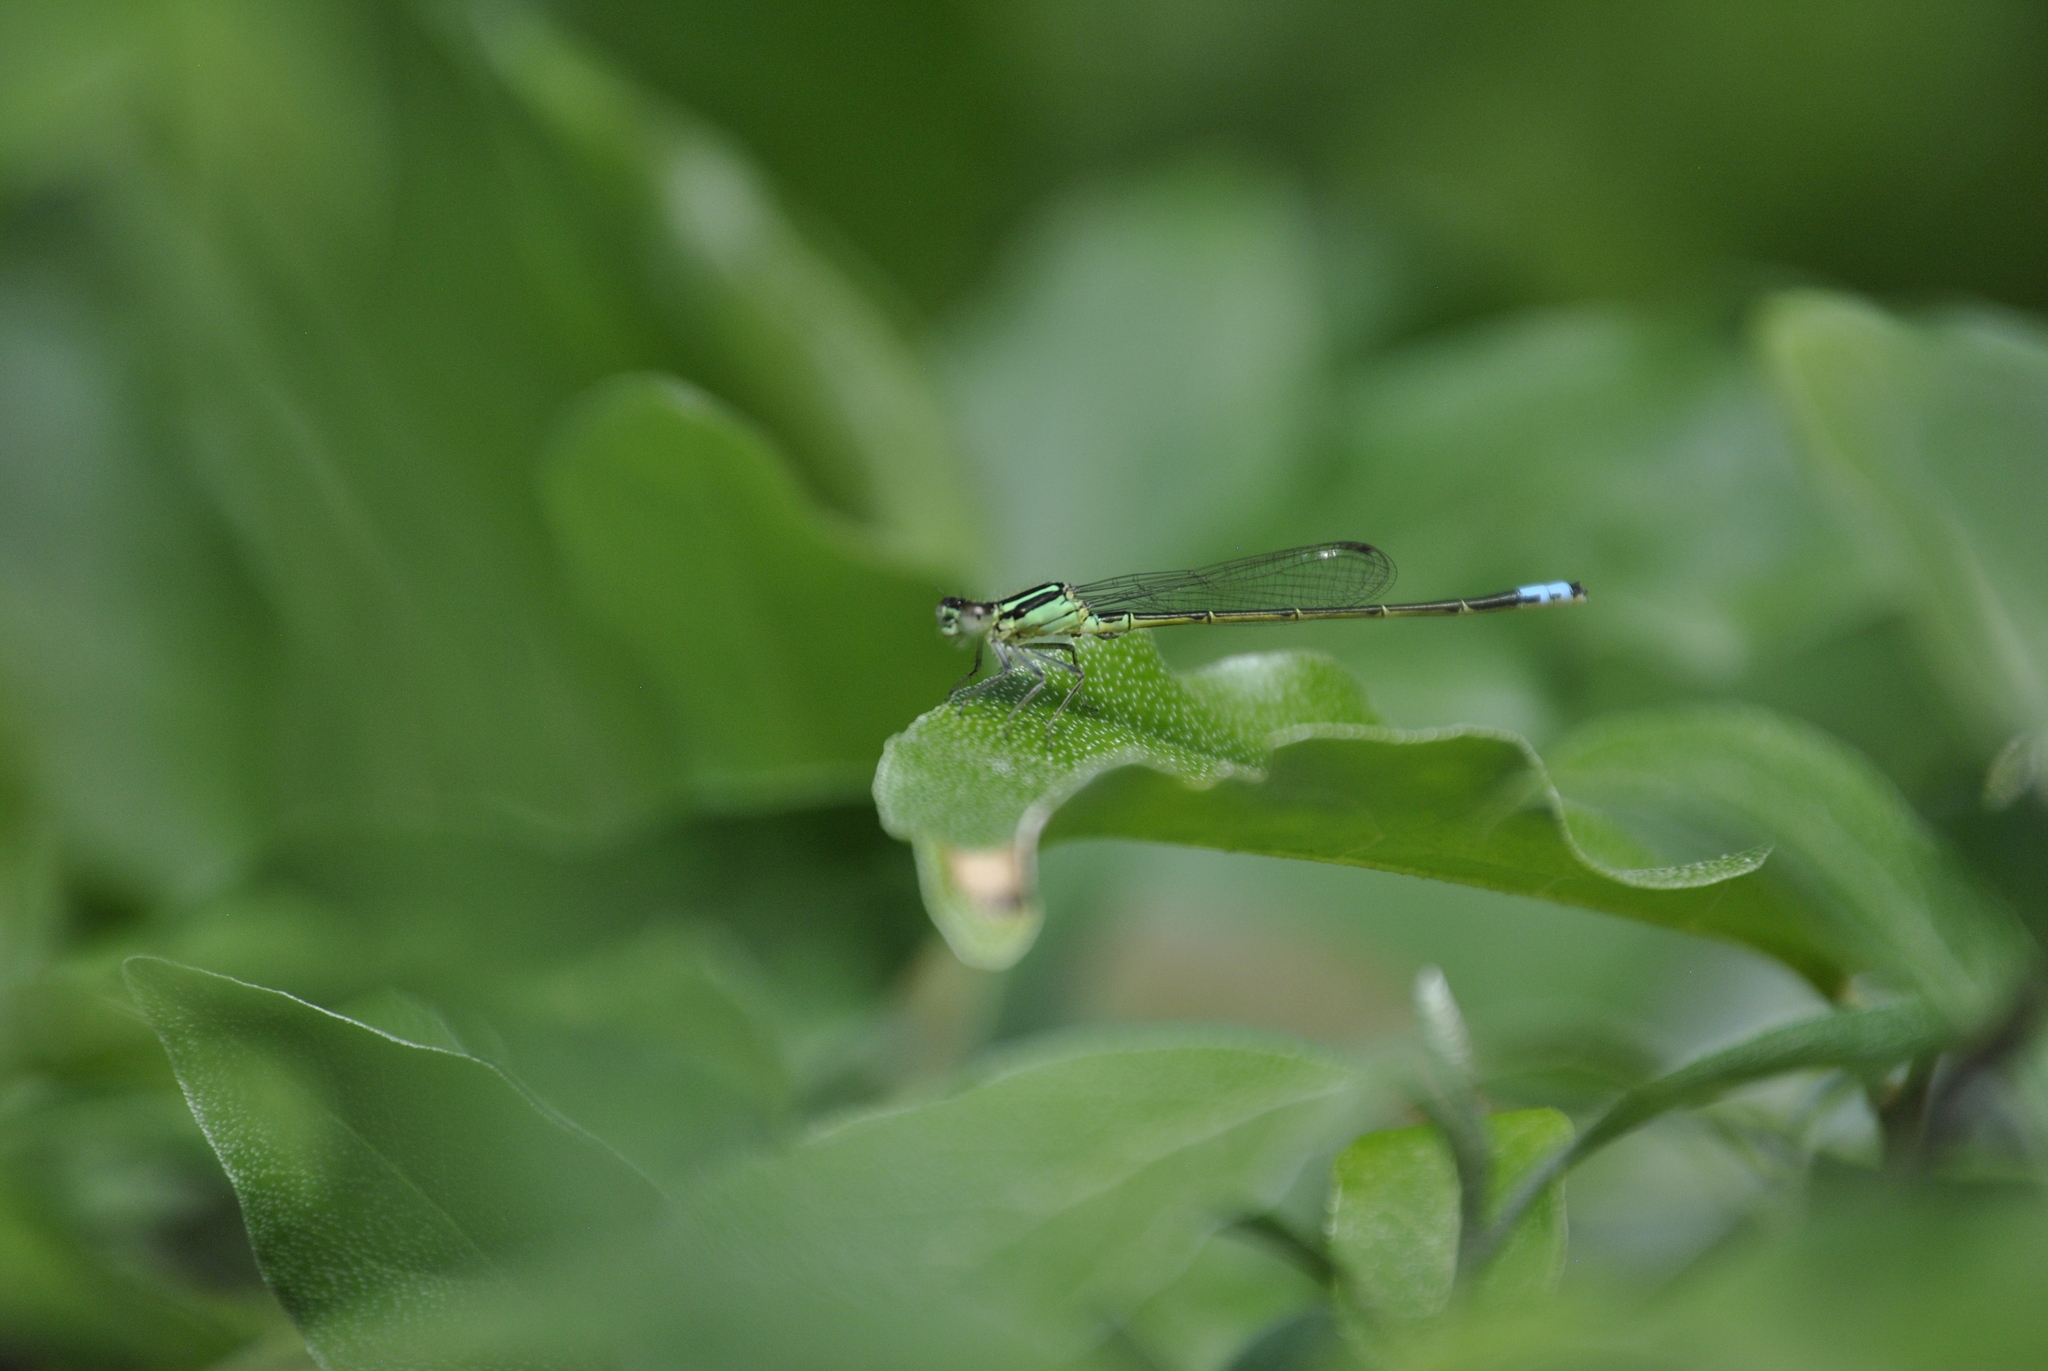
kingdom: Animalia
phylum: Arthropoda
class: Insecta
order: Odonata
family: Coenagrionidae
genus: Ischnura
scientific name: Ischnura verticalis
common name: Eastern forktail
